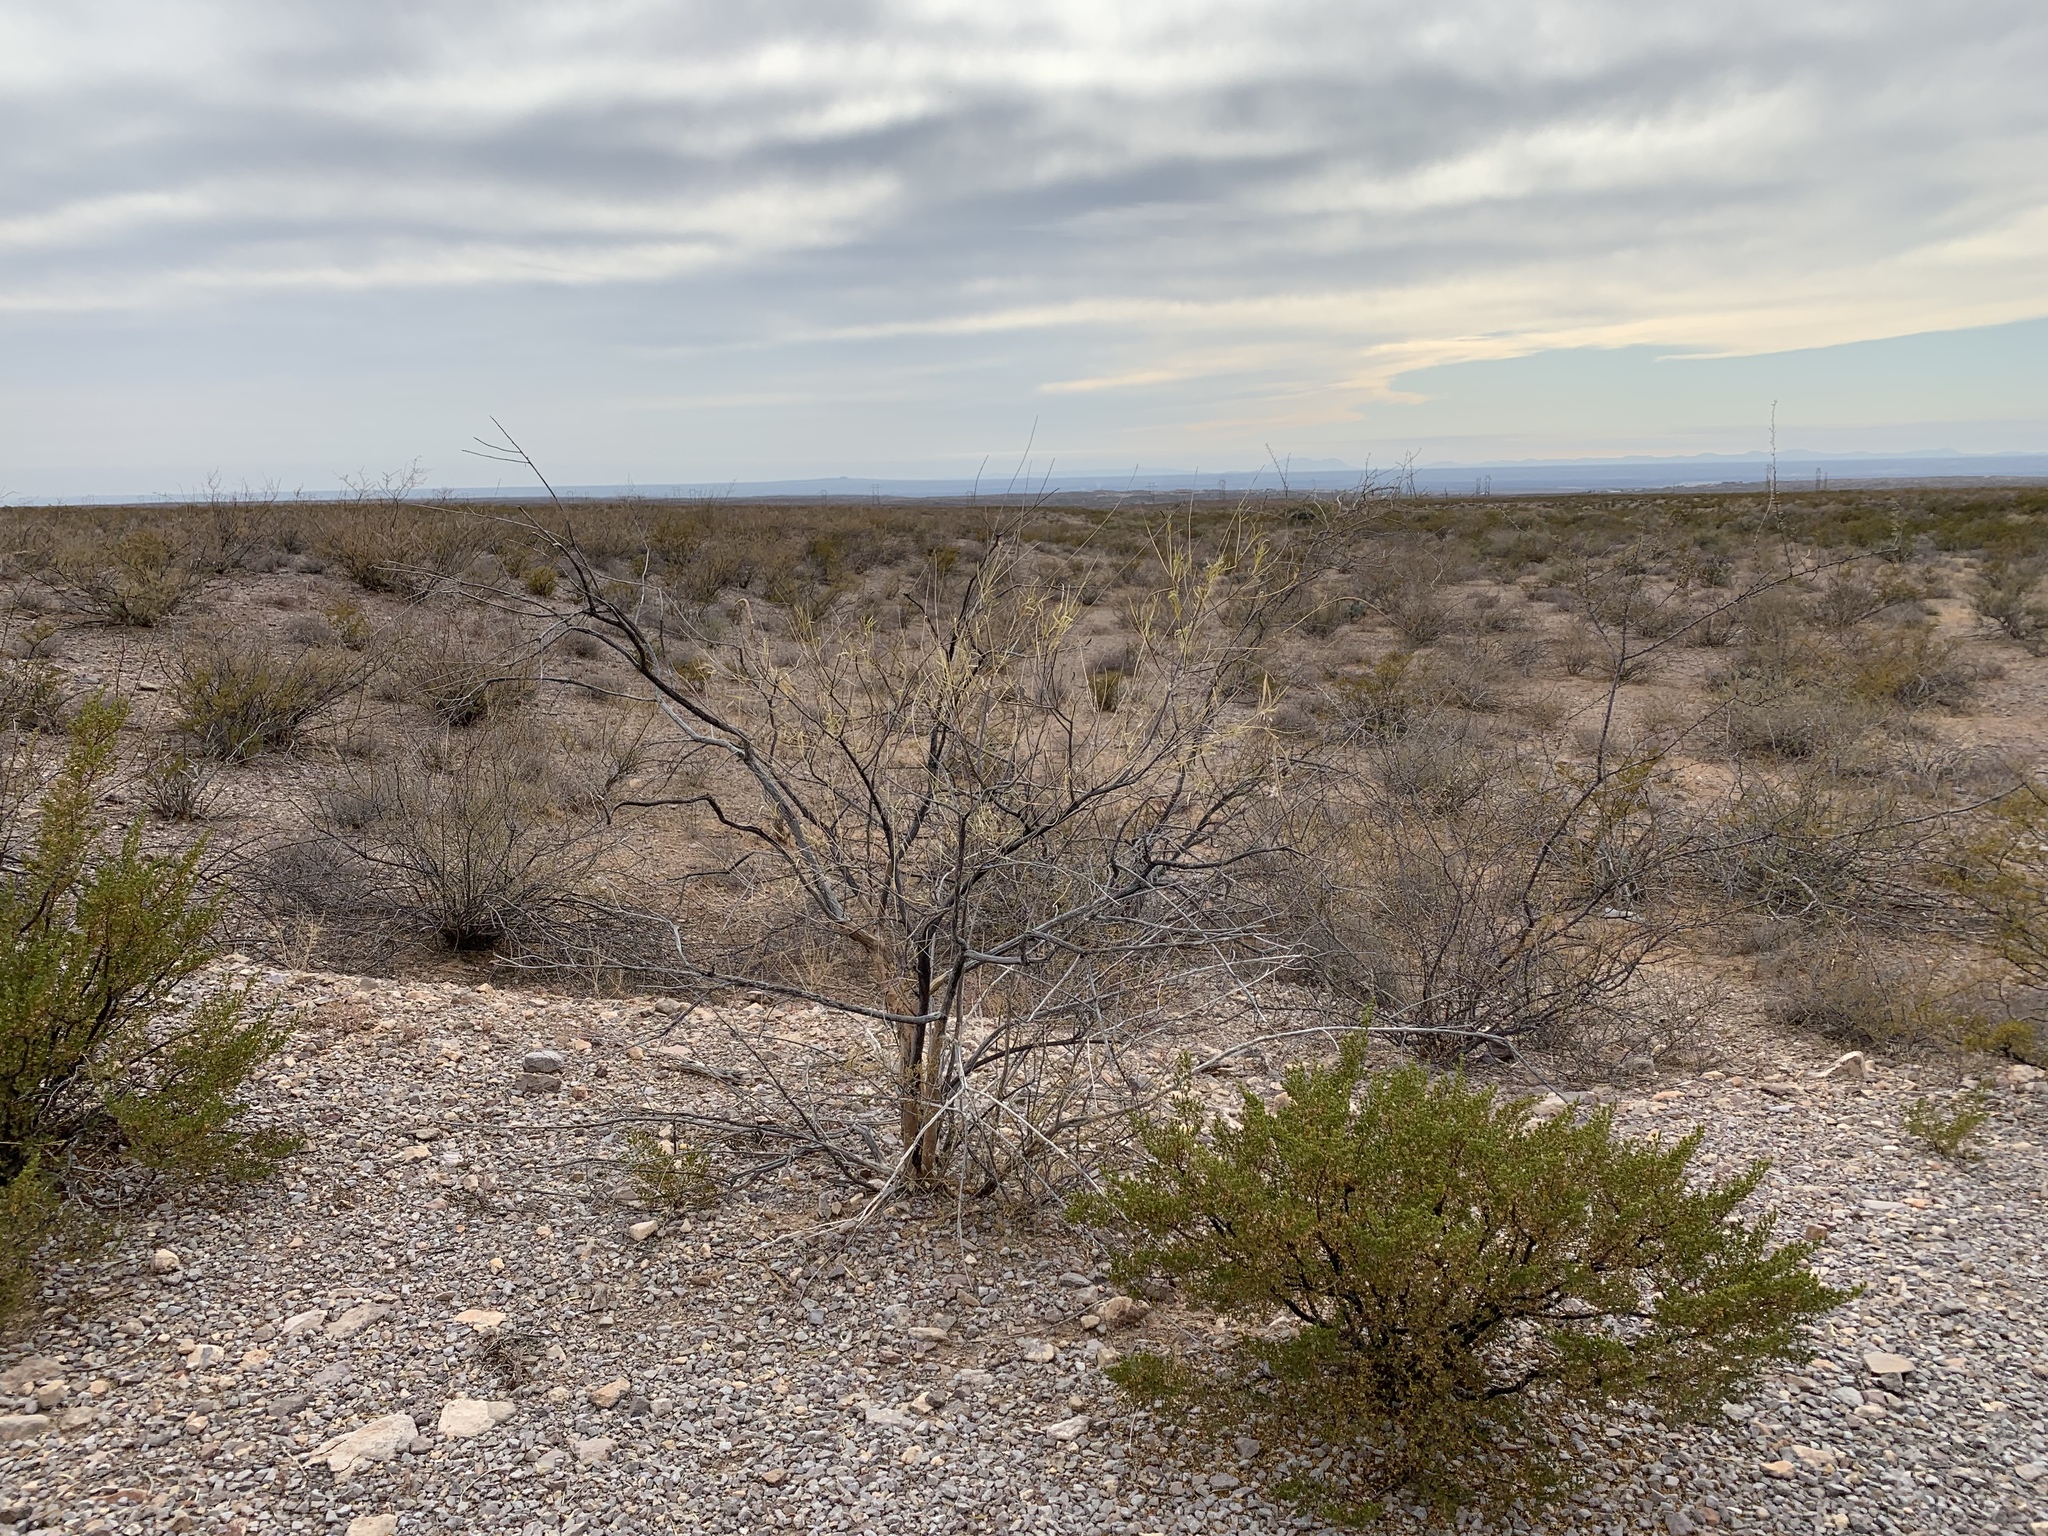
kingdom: Plantae
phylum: Tracheophyta
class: Magnoliopsida
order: Lamiales
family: Bignoniaceae
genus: Chilopsis
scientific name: Chilopsis linearis
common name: Desert-willow
